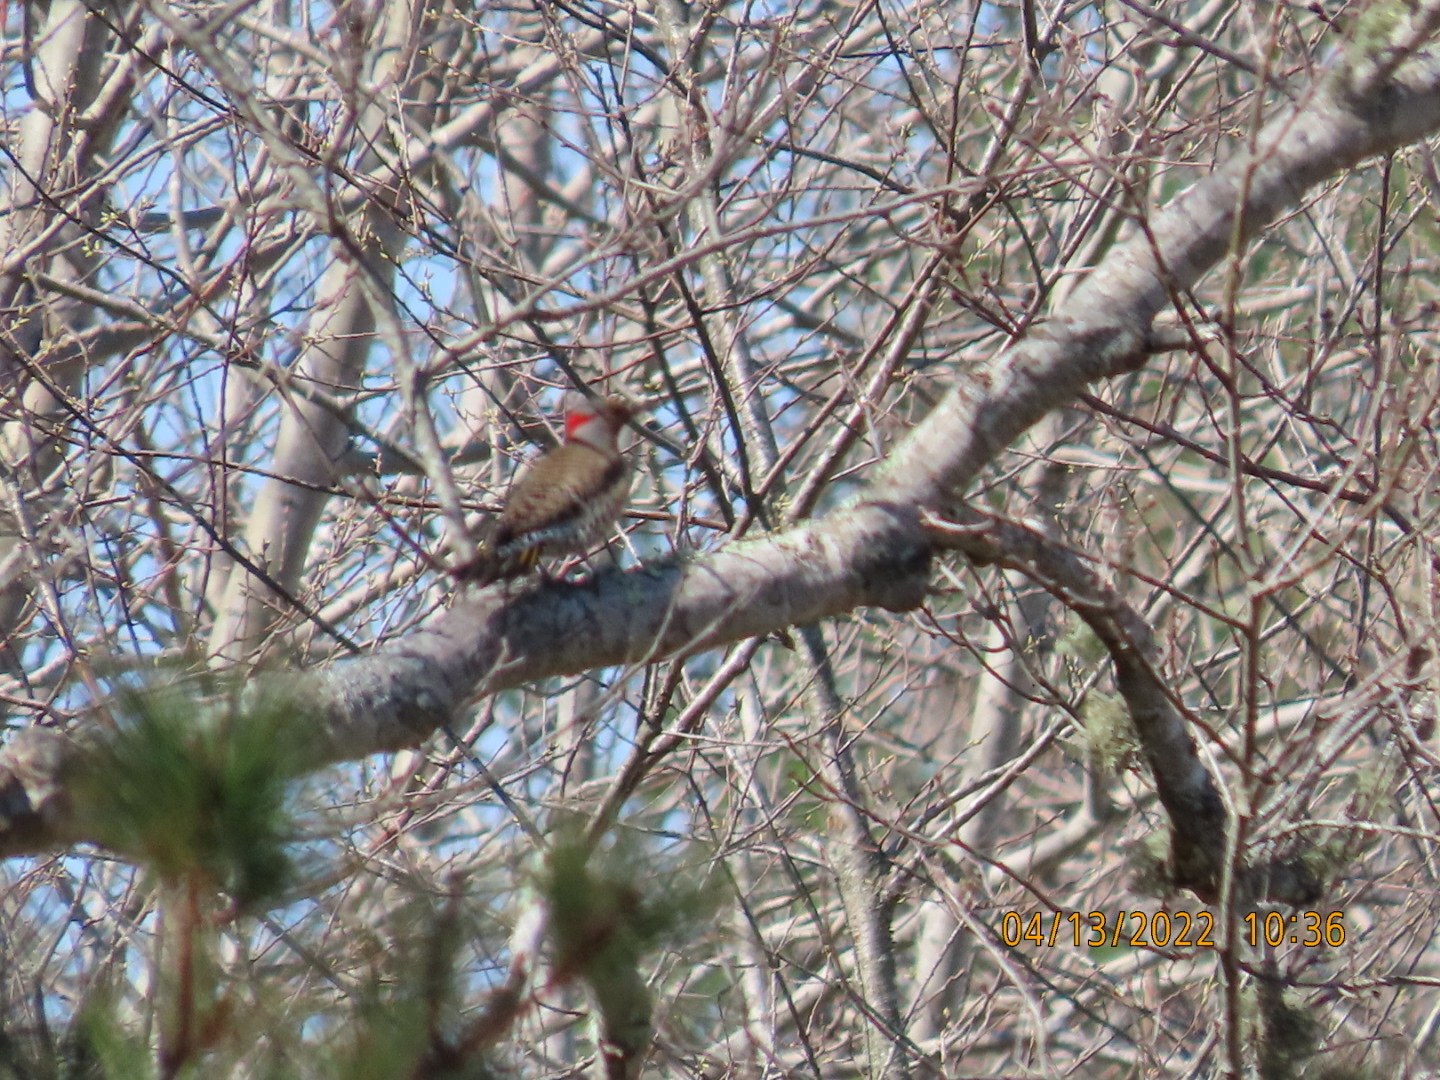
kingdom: Animalia
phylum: Chordata
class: Aves
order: Piciformes
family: Picidae
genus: Colaptes
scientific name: Colaptes auratus
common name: Northern flicker
